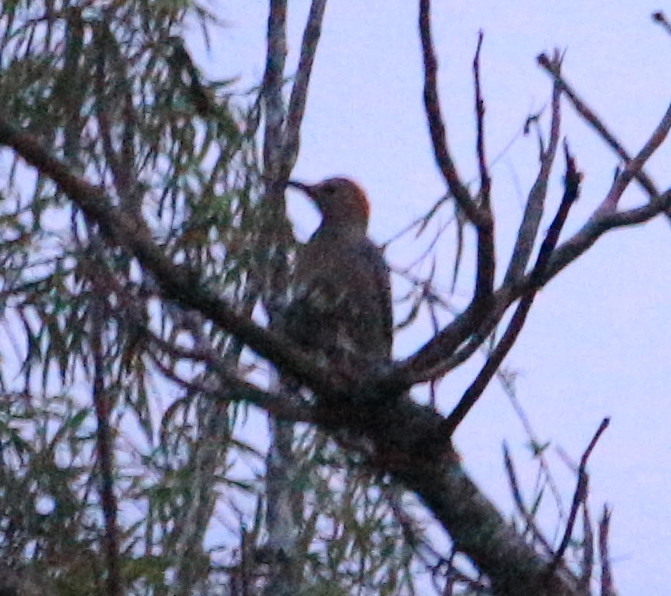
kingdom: Animalia
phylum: Chordata
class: Aves
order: Piciformes
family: Picidae
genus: Melanerpes
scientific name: Melanerpes aurifrons
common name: Golden-fronted woodpecker
